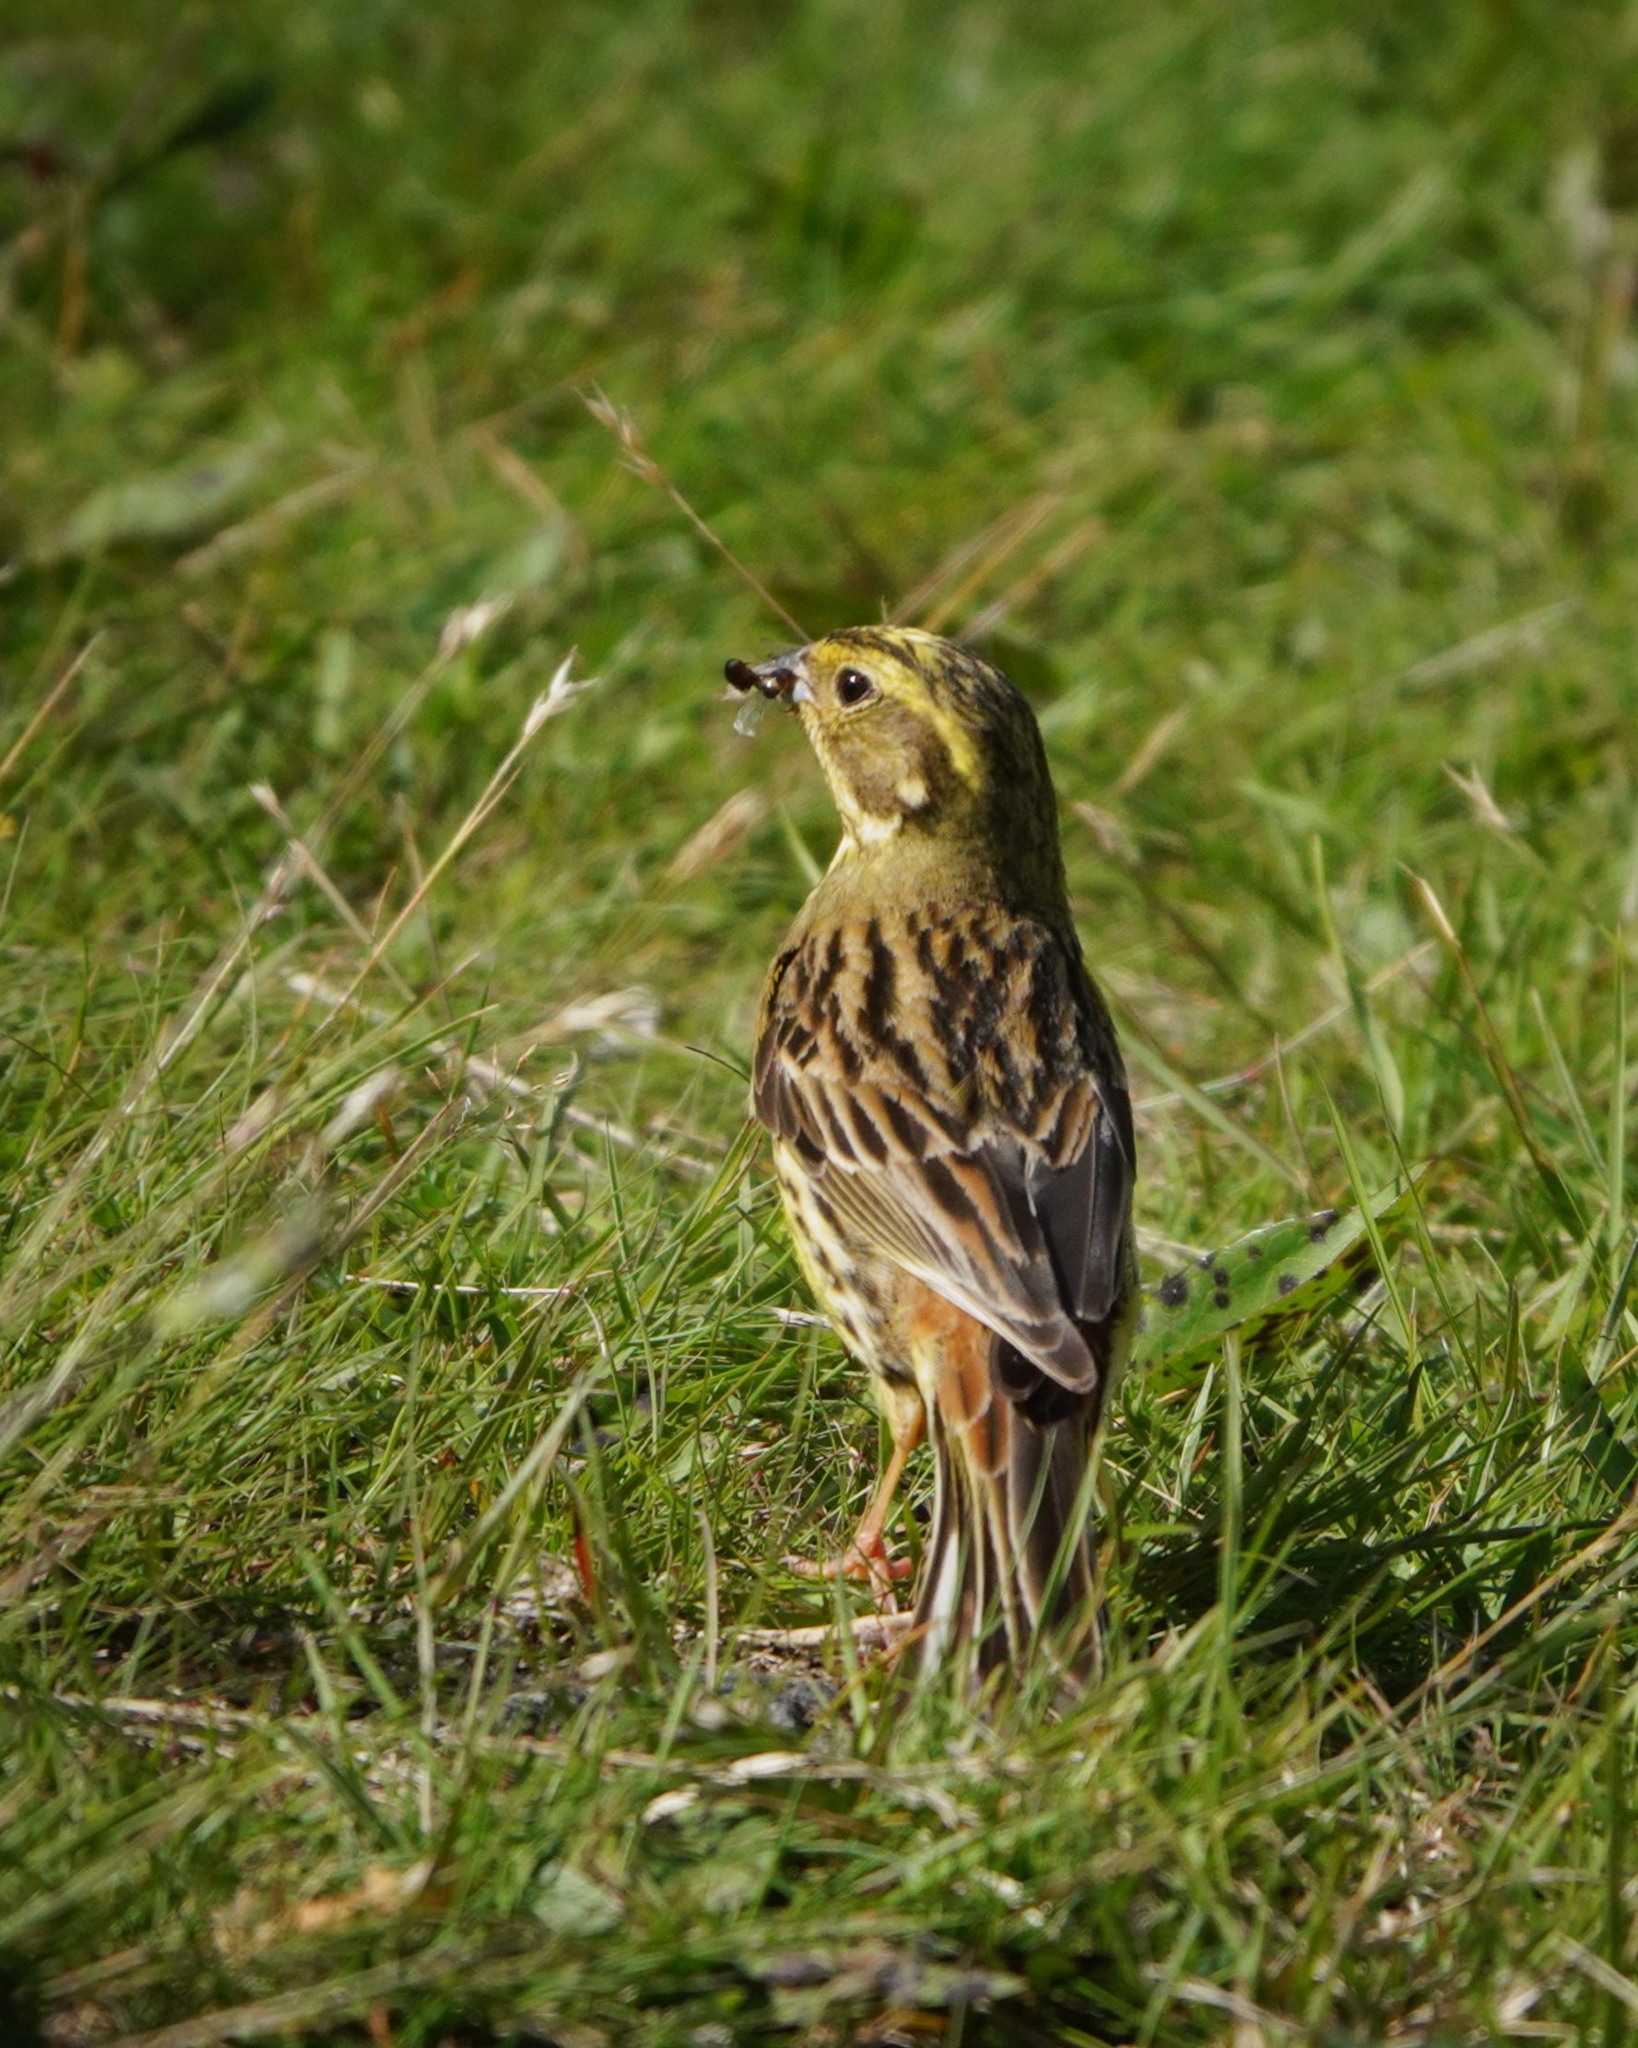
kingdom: Animalia
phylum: Chordata
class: Aves
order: Passeriformes
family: Emberizidae
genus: Emberiza
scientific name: Emberiza citrinella
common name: Yellowhammer
